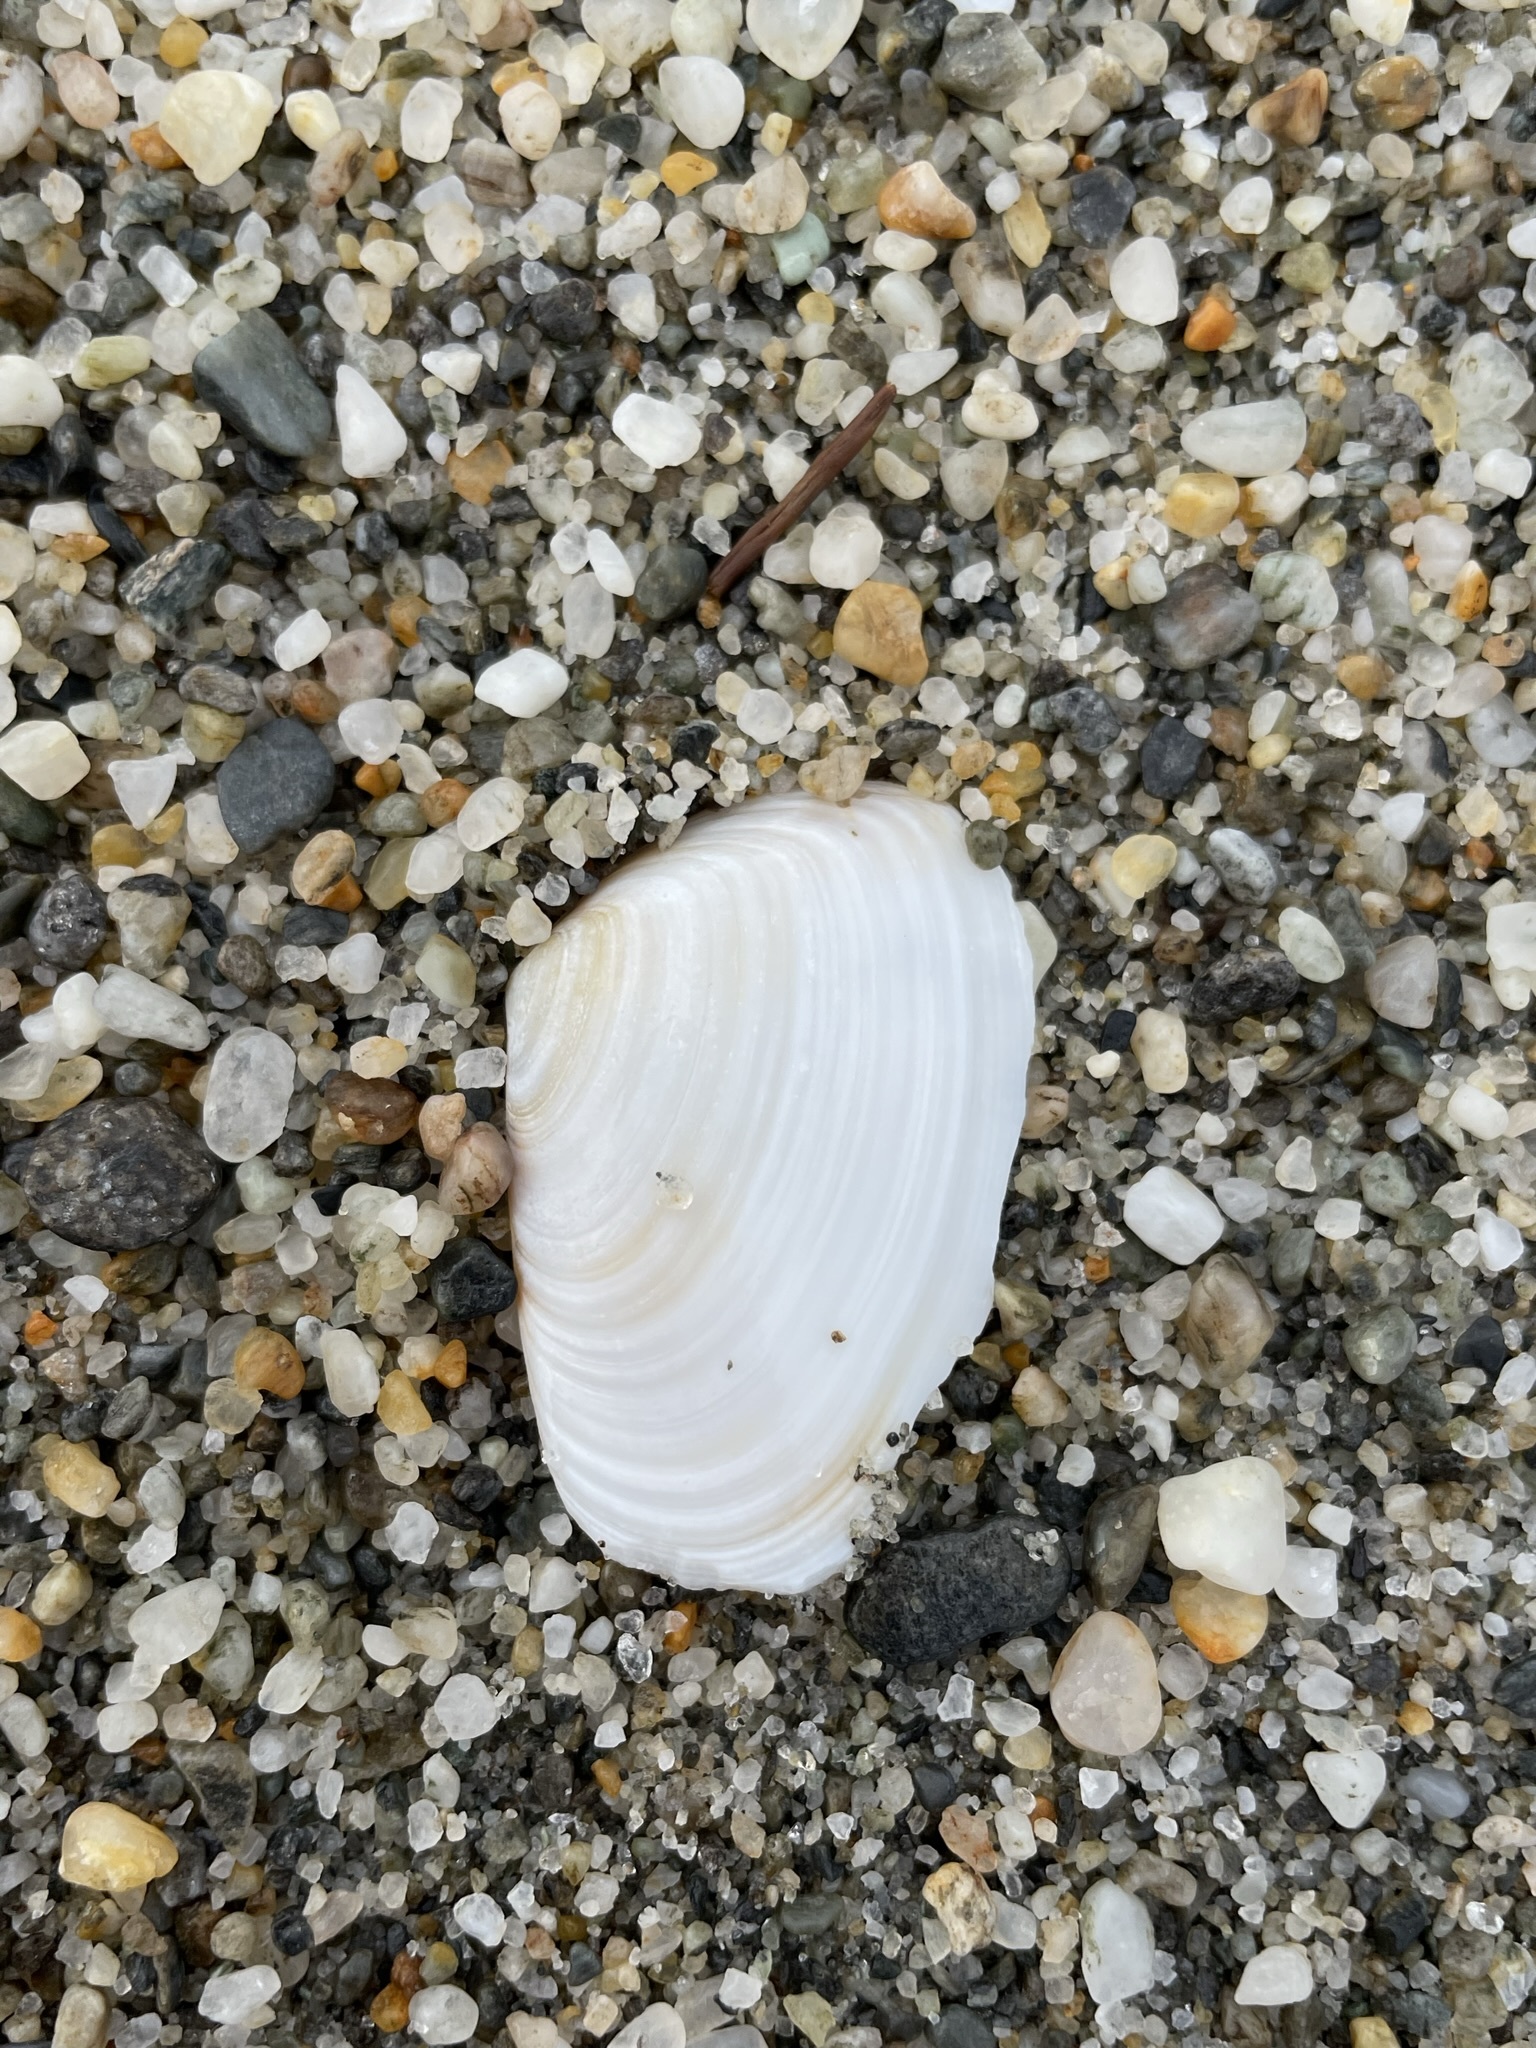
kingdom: Animalia
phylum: Mollusca
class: Bivalvia
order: Venerida
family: Mesodesmatidae
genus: Paphies
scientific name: Paphies subtriangulata
